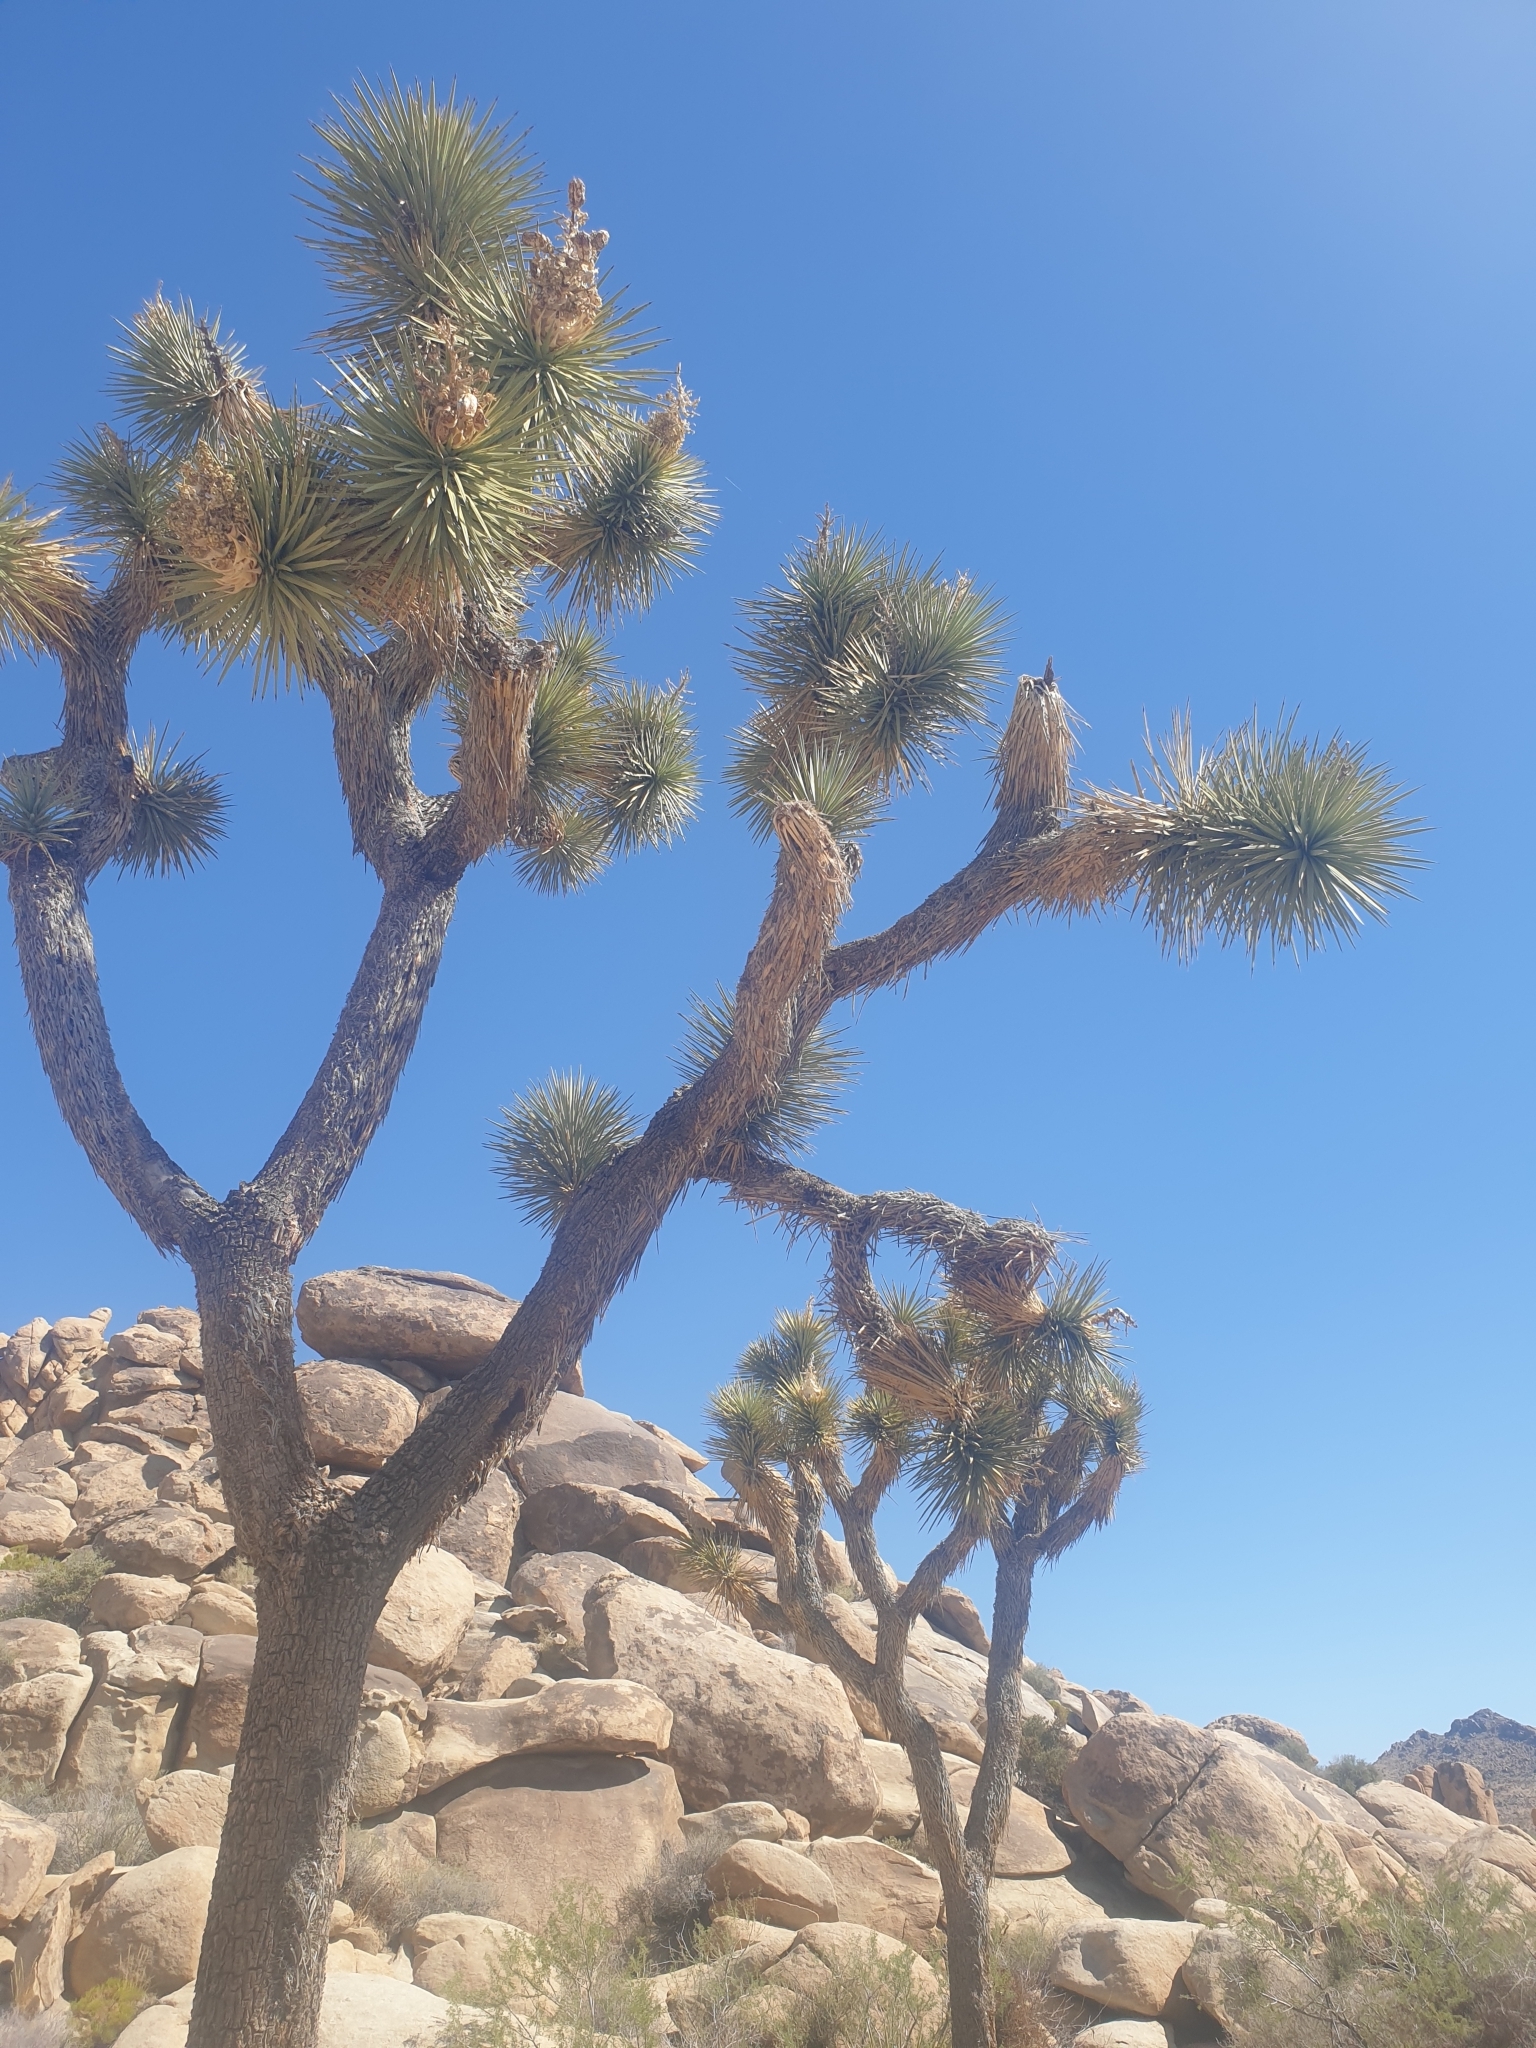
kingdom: Plantae
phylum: Tracheophyta
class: Liliopsida
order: Asparagales
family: Asparagaceae
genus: Yucca
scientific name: Yucca brevifolia
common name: Joshua tree
